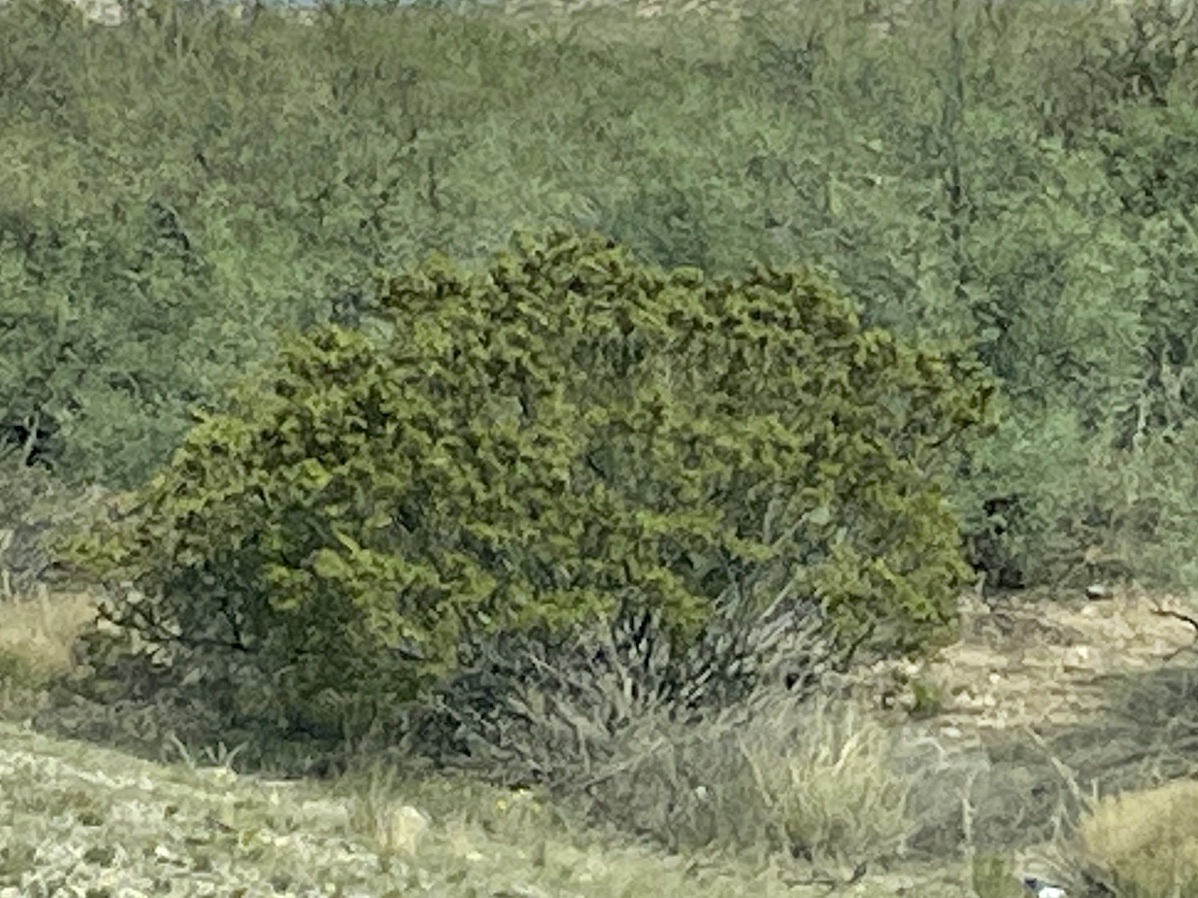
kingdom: Plantae
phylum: Tracheophyta
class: Magnoliopsida
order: Zygophyllales
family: Zygophyllaceae
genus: Larrea
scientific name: Larrea tridentata
